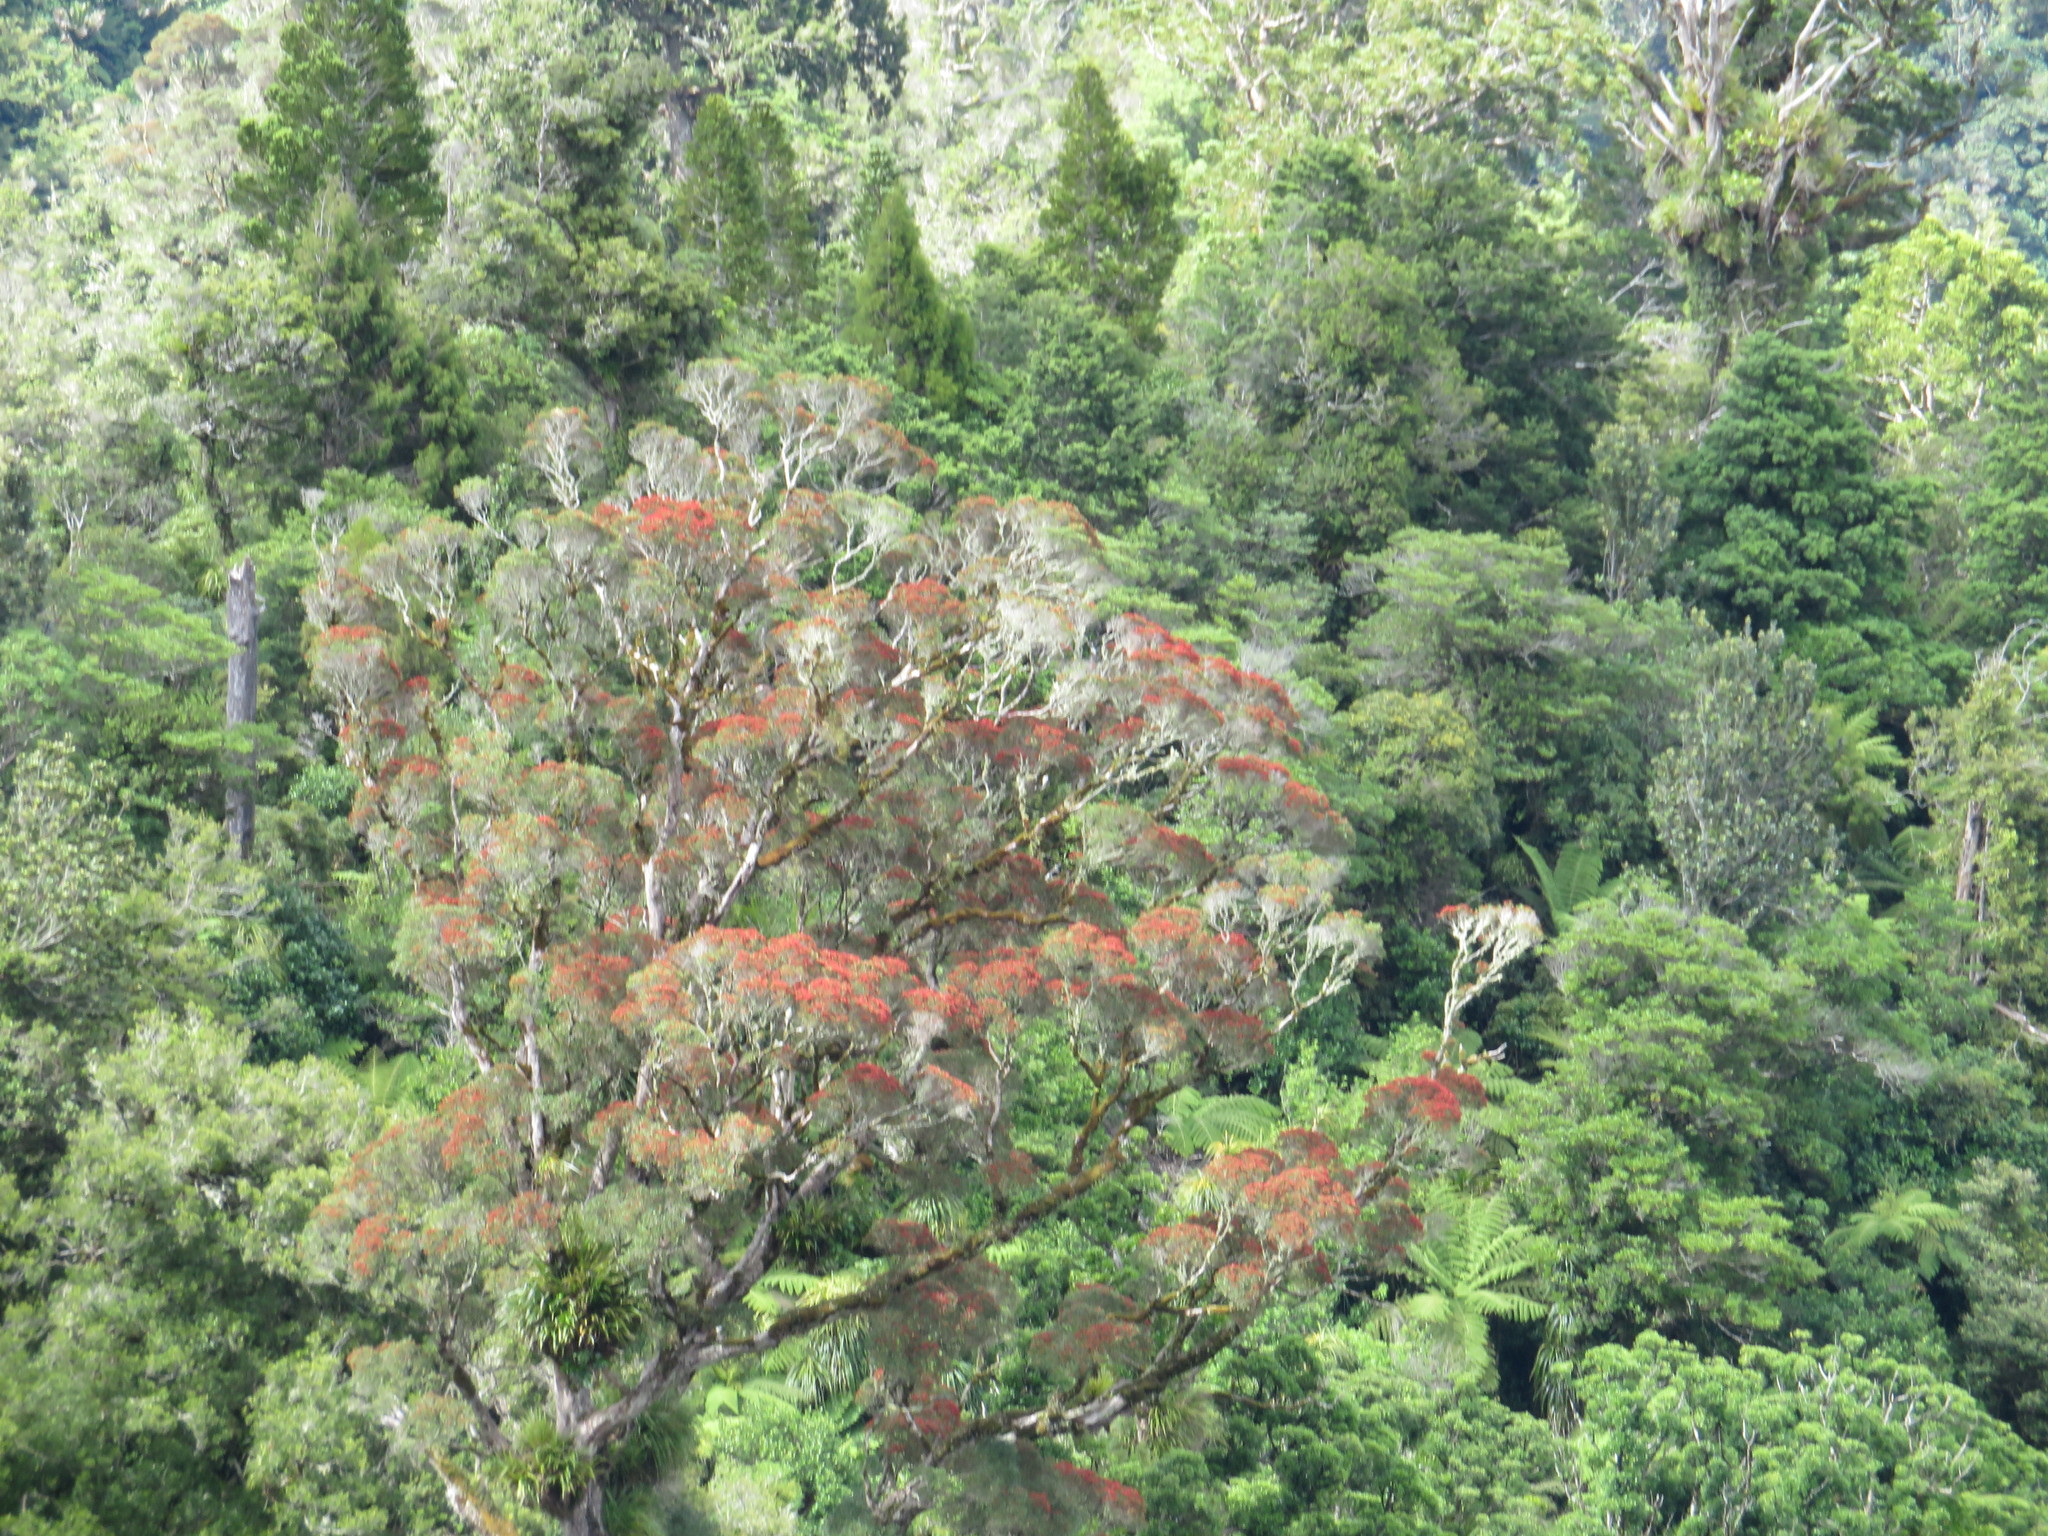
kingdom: Plantae
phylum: Tracheophyta
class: Magnoliopsida
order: Myrtales
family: Myrtaceae
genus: Metrosideros
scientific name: Metrosideros robusta
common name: Northern rata
